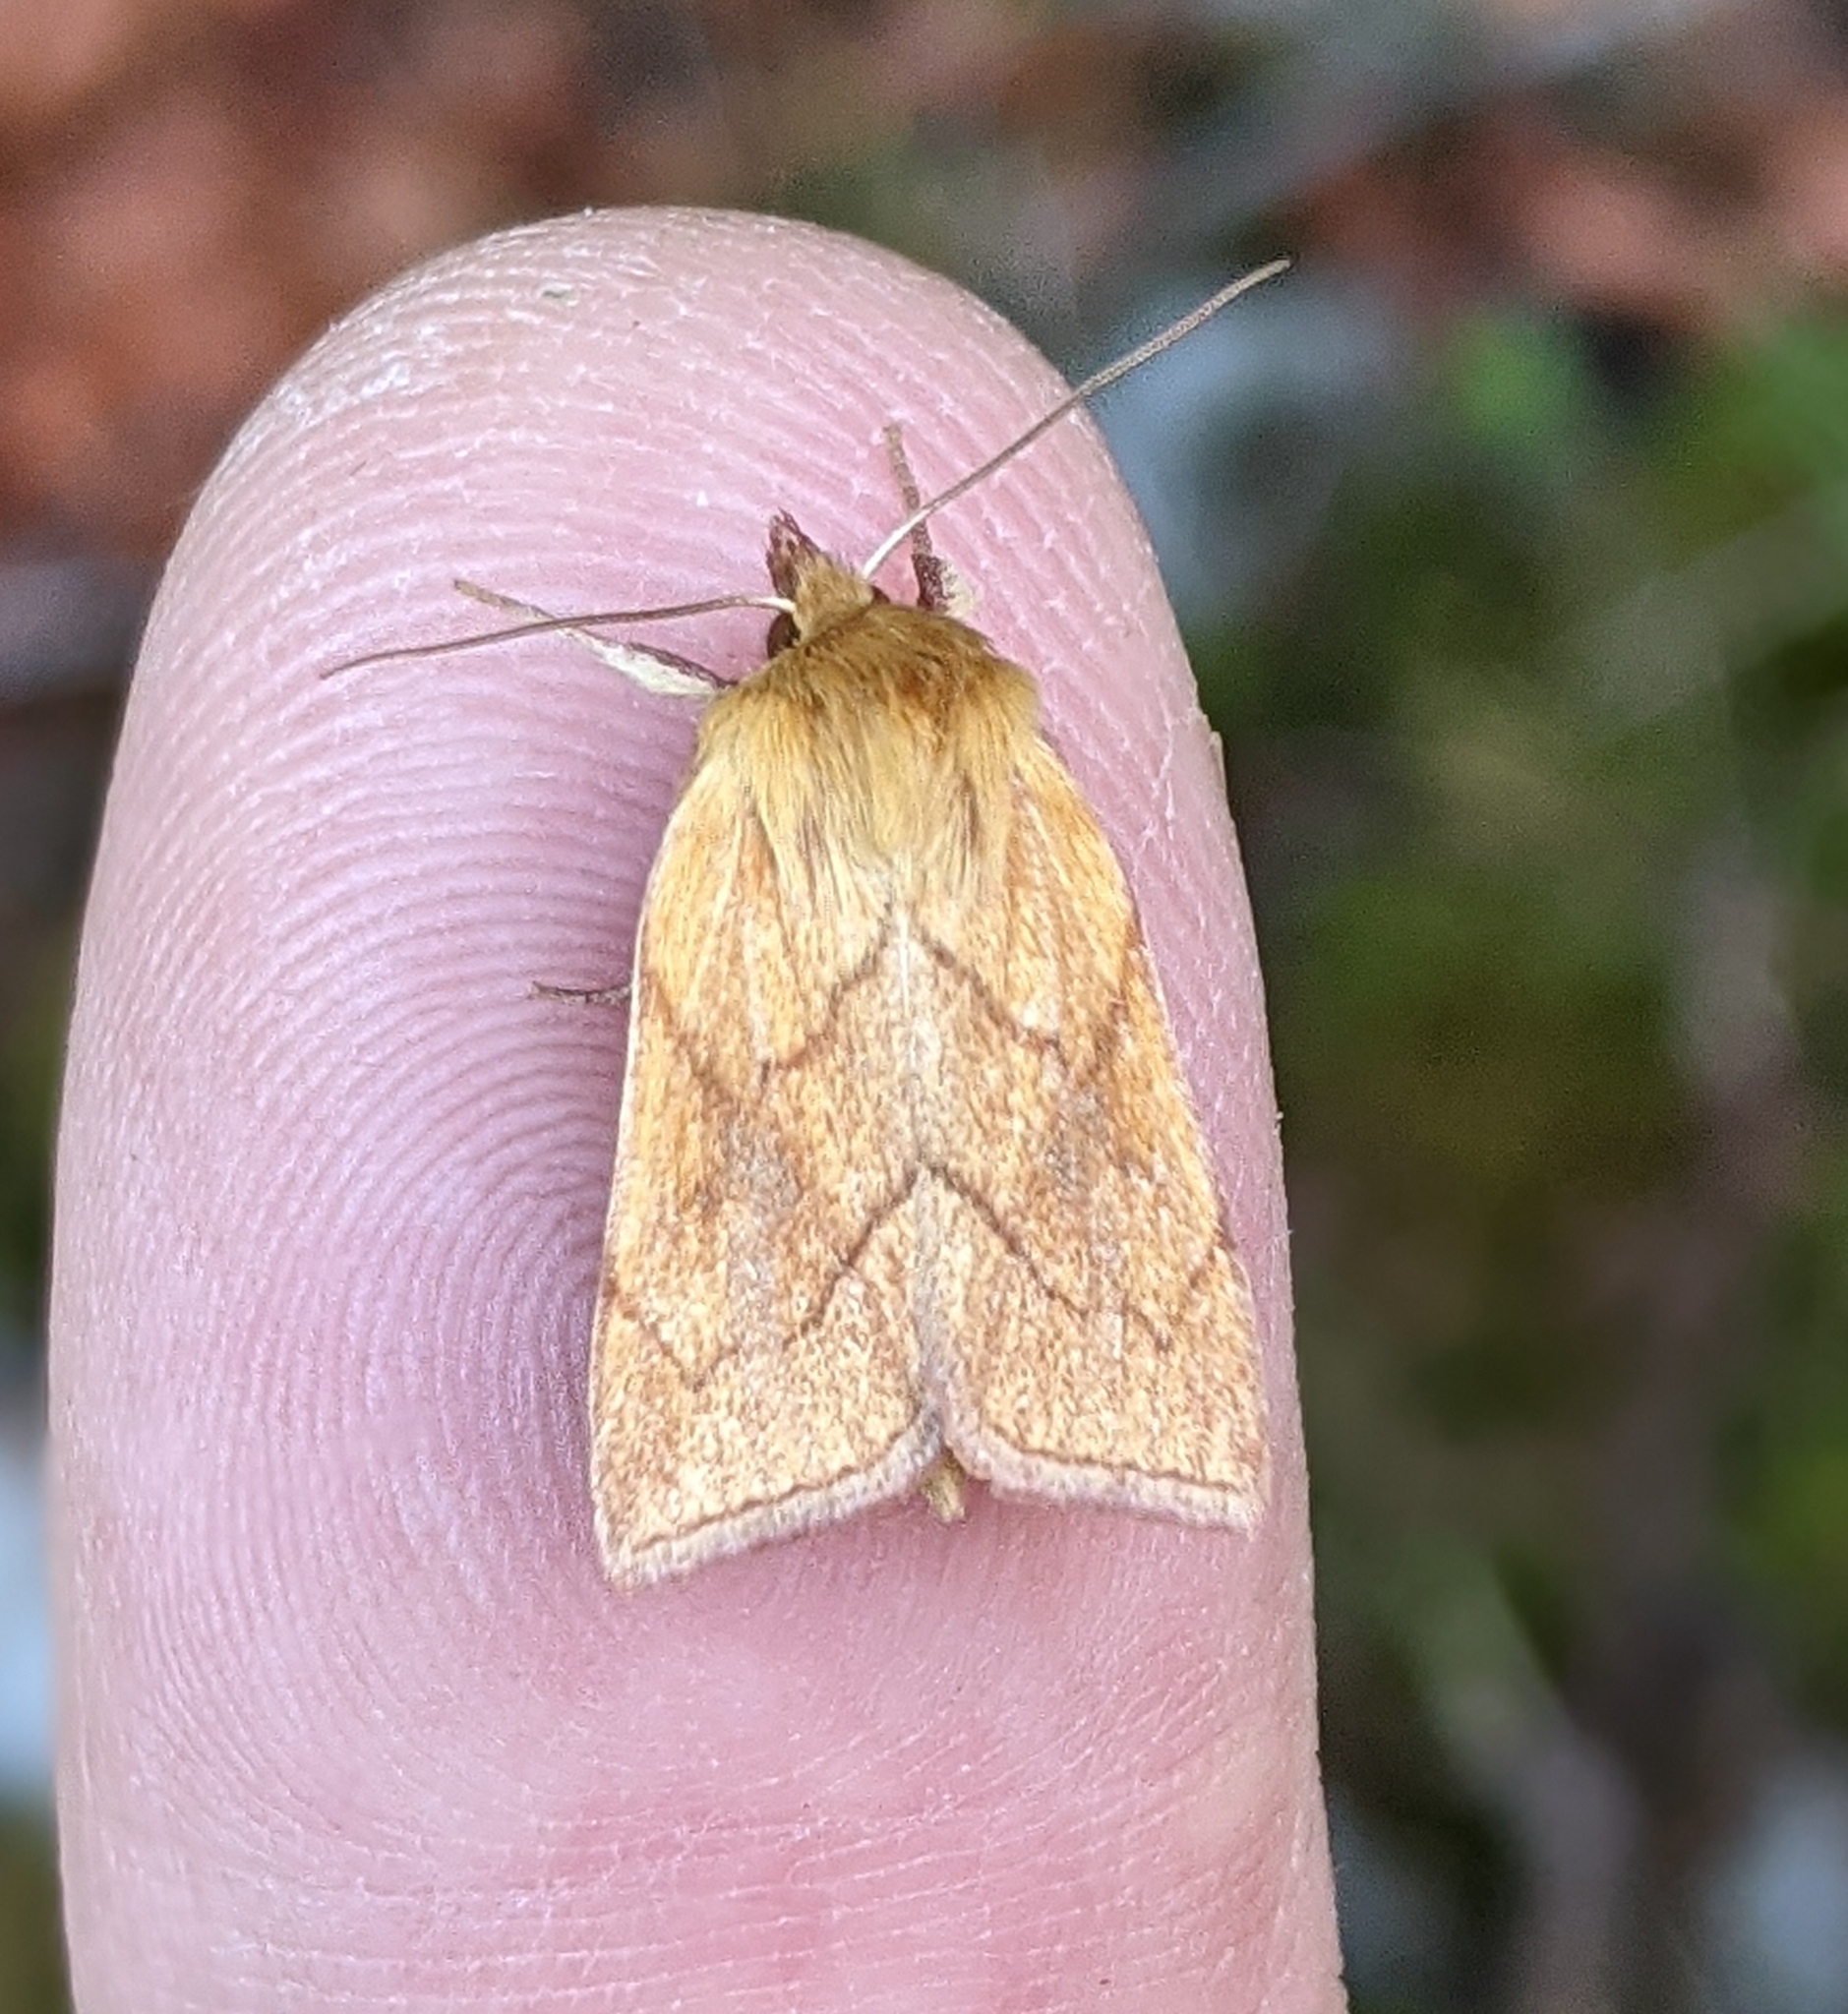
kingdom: Animalia
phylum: Arthropoda
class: Insecta
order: Lepidoptera
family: Noctuidae
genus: Zosteropoda
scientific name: Zosteropoda hirtipes
